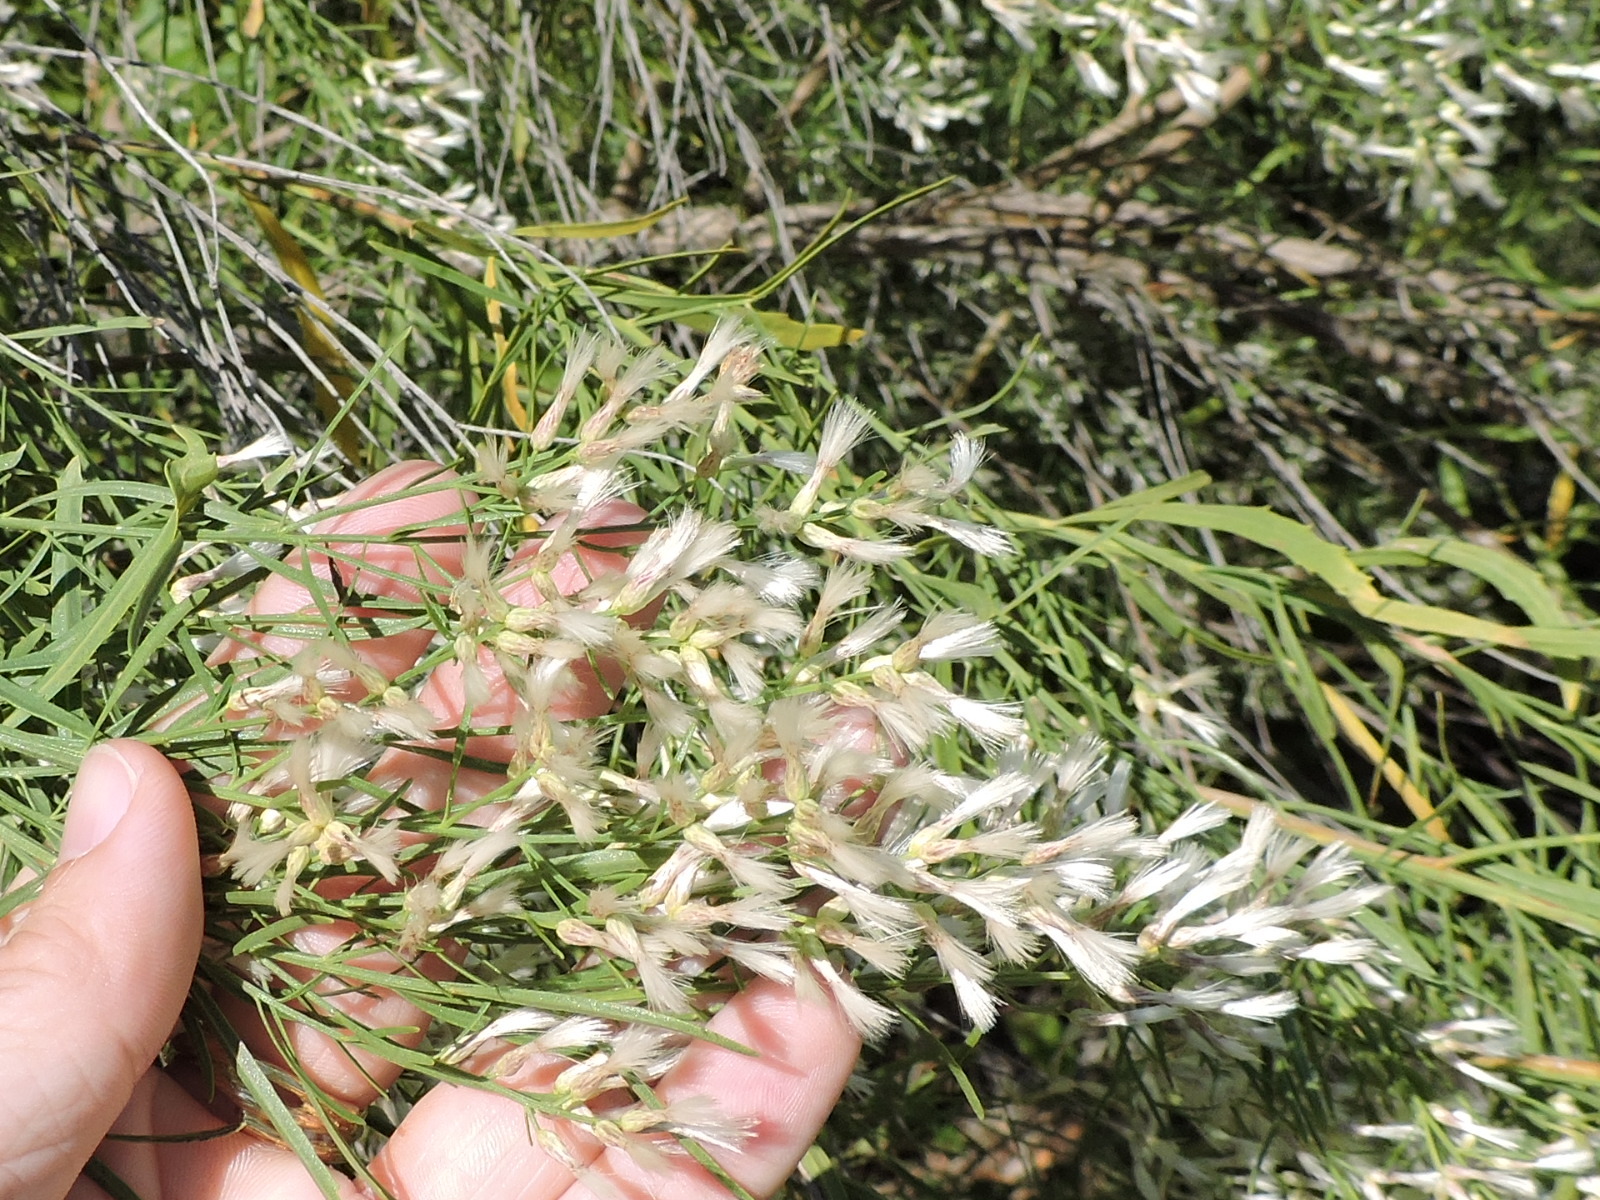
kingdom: Plantae
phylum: Tracheophyta
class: Magnoliopsida
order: Asterales
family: Asteraceae
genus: Baccharis
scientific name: Baccharis neglecta
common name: Roosevelt-weed
